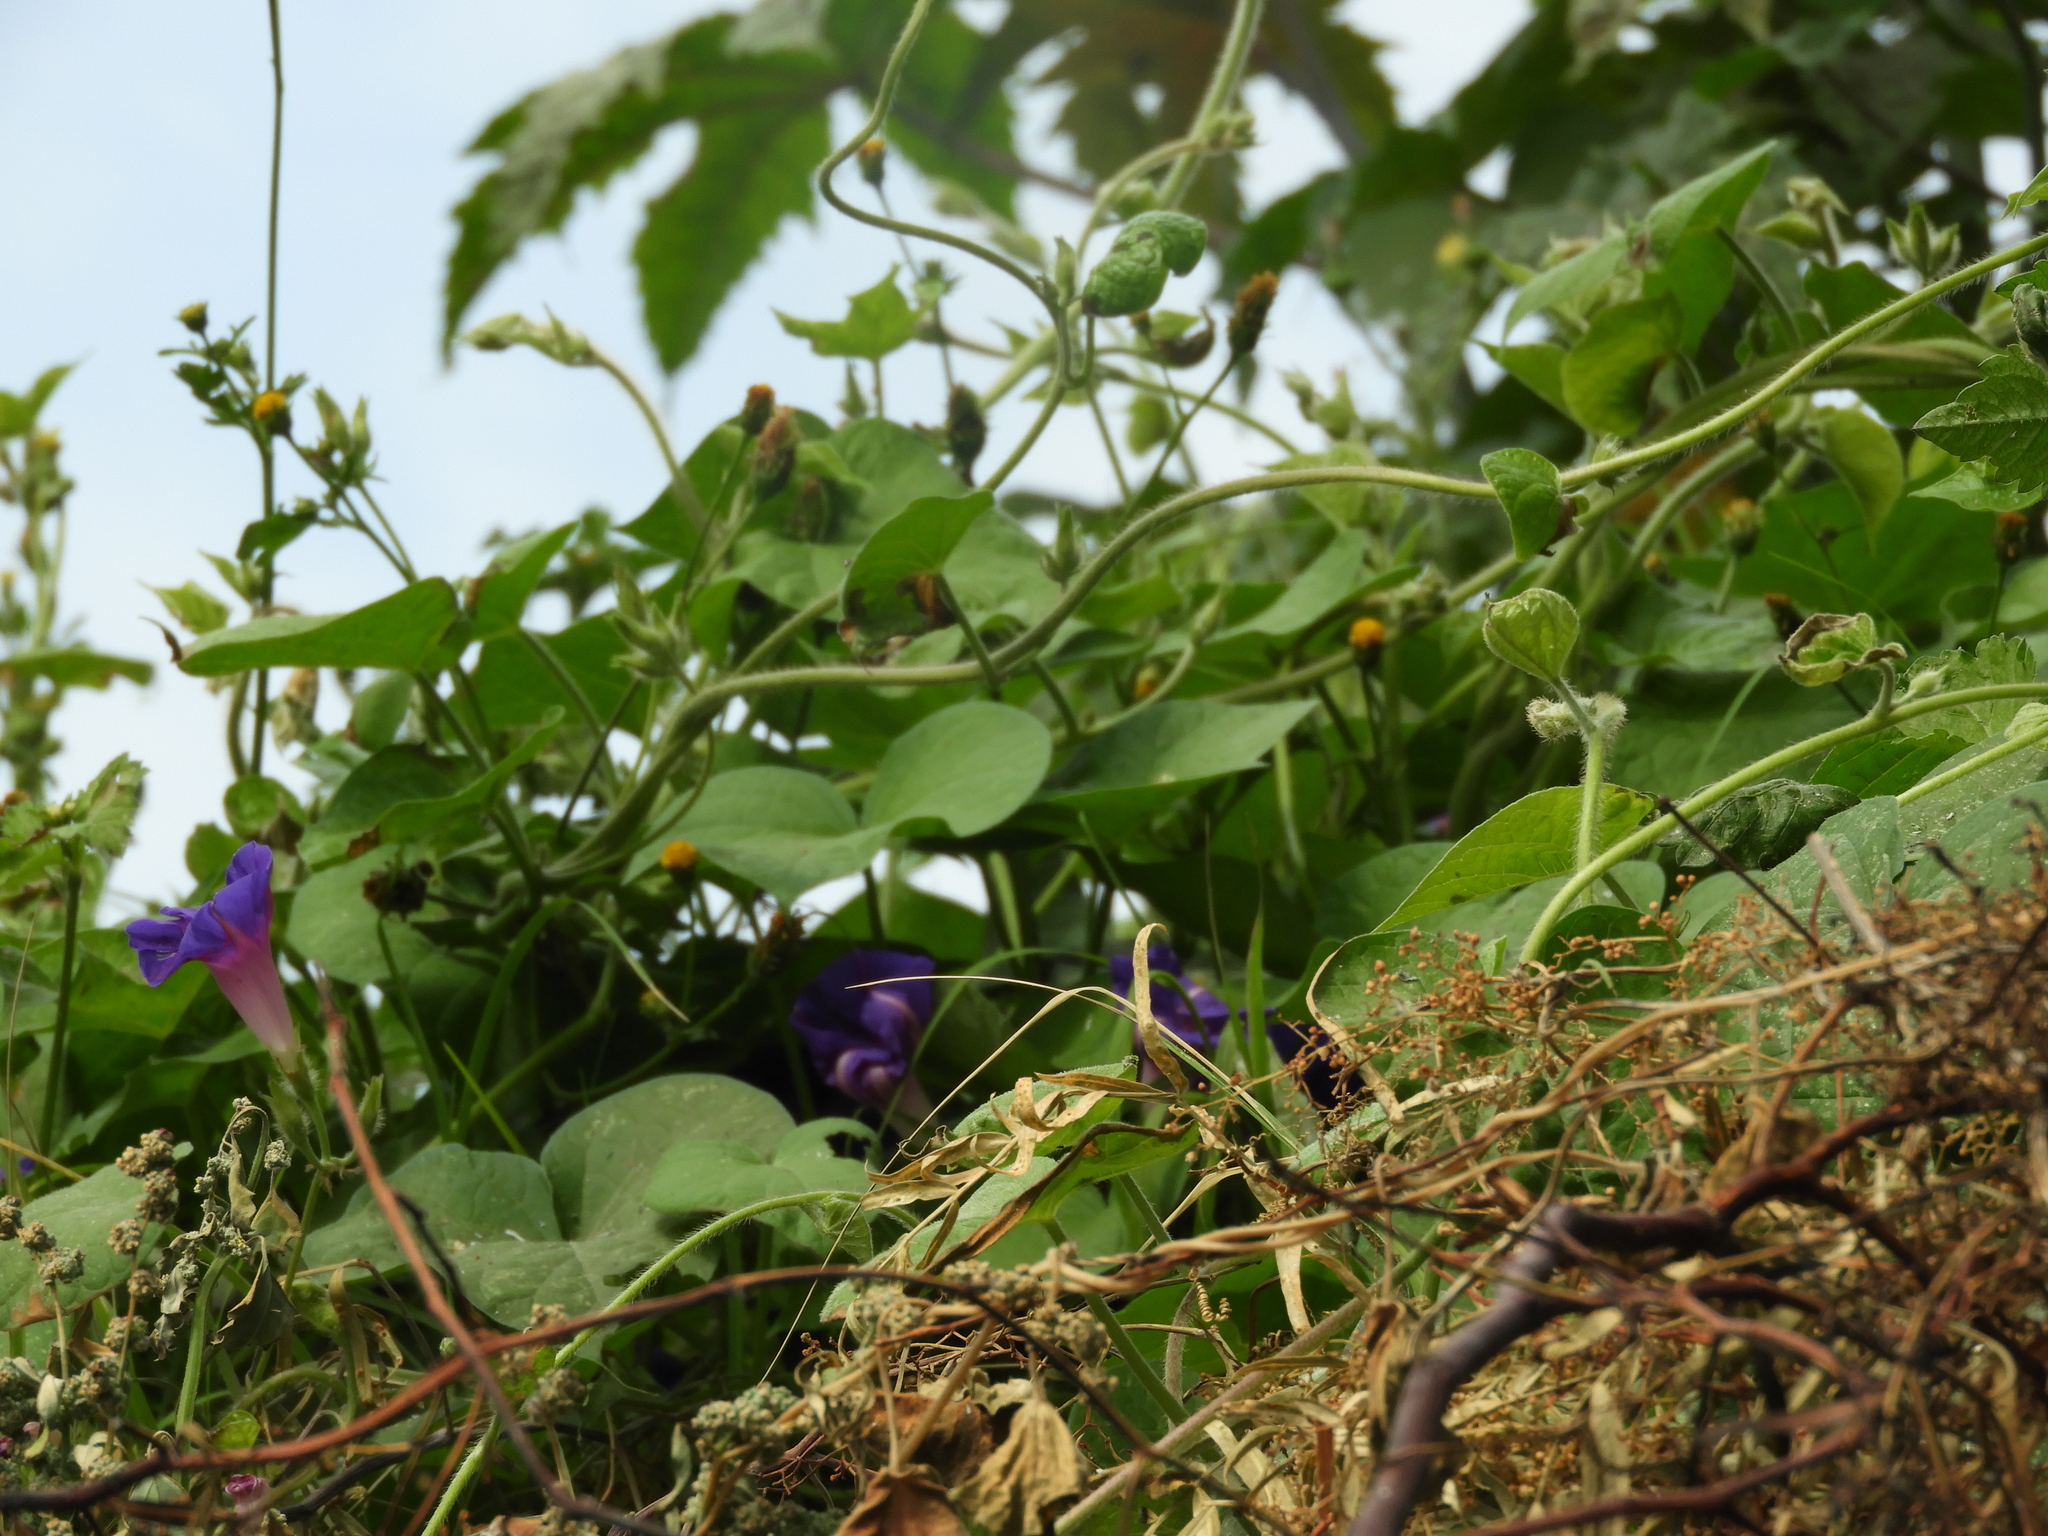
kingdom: Plantae
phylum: Tracheophyta
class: Magnoliopsida
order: Solanales
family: Convolvulaceae
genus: Ipomoea
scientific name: Ipomoea purpurea
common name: Common morning-glory
